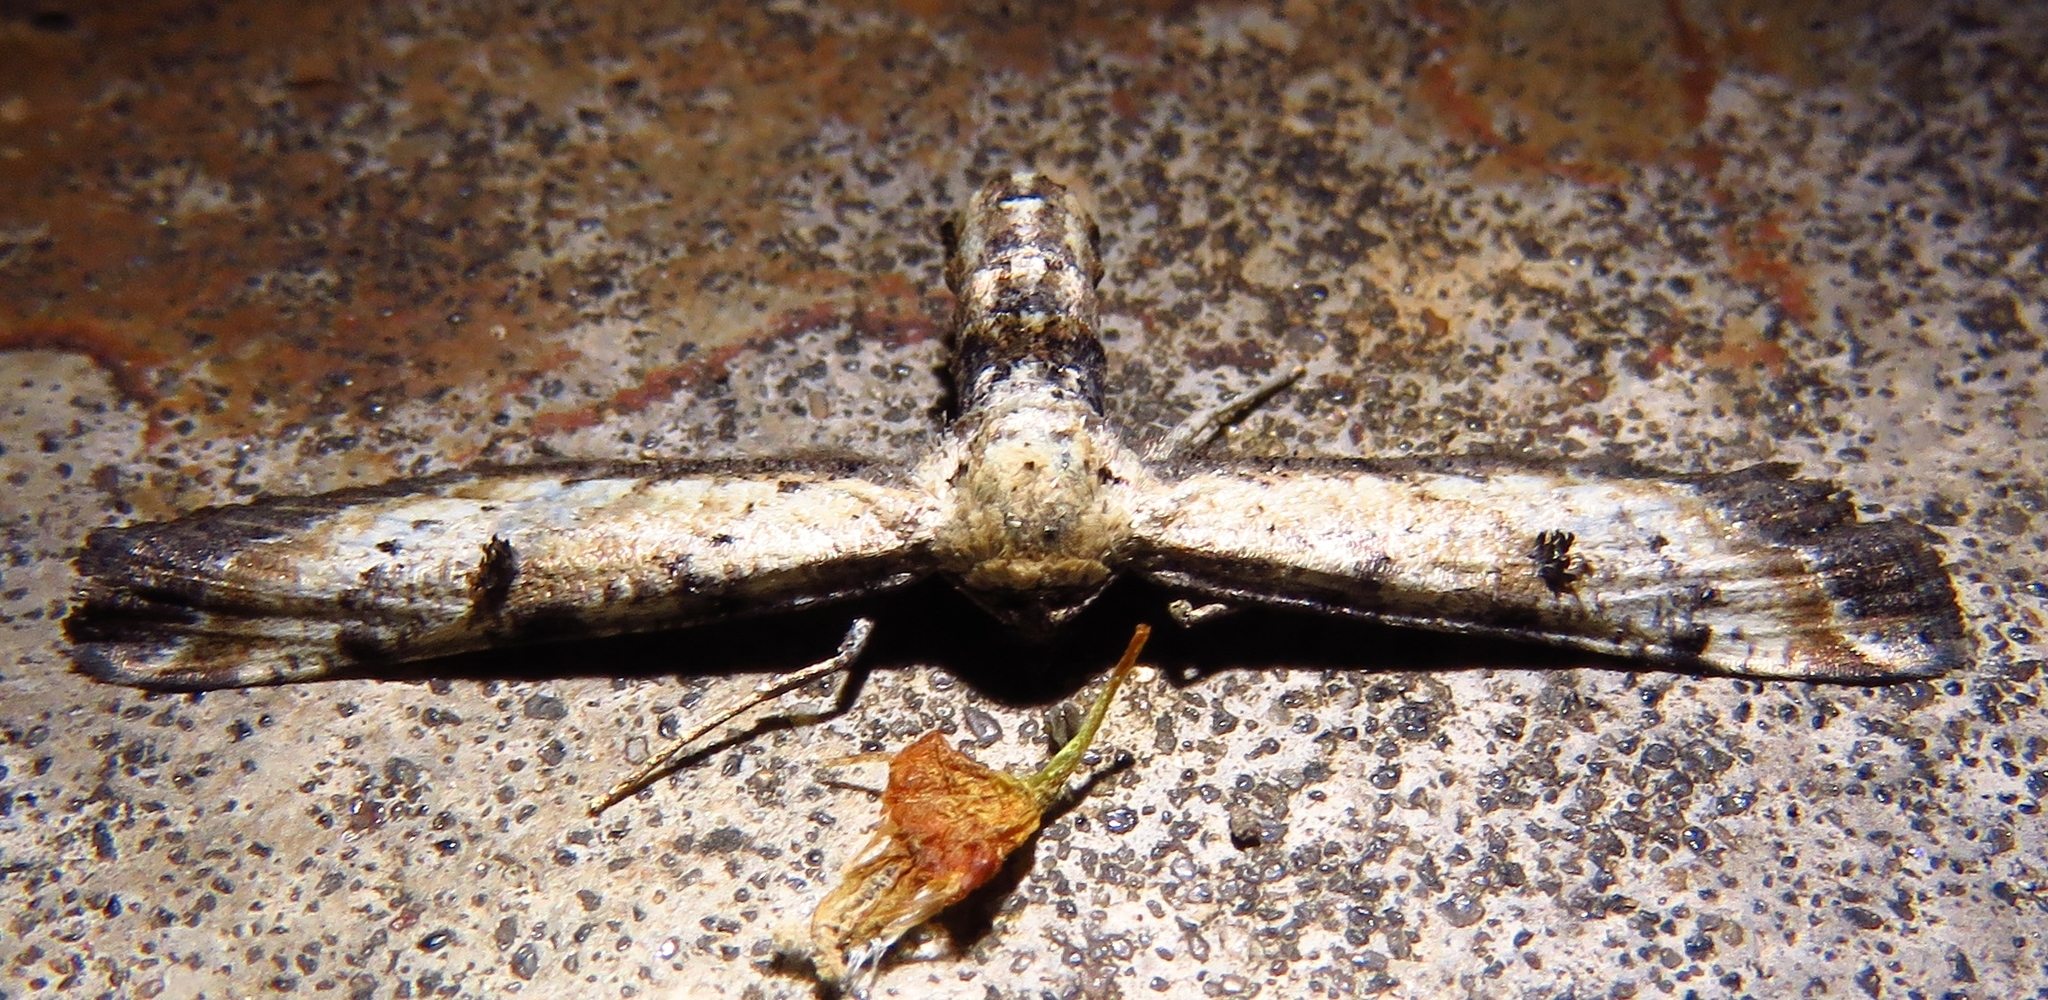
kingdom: Animalia
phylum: Arthropoda
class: Insecta
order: Lepidoptera
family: Geometridae
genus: Tornos
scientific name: Tornos scolopacinaria
